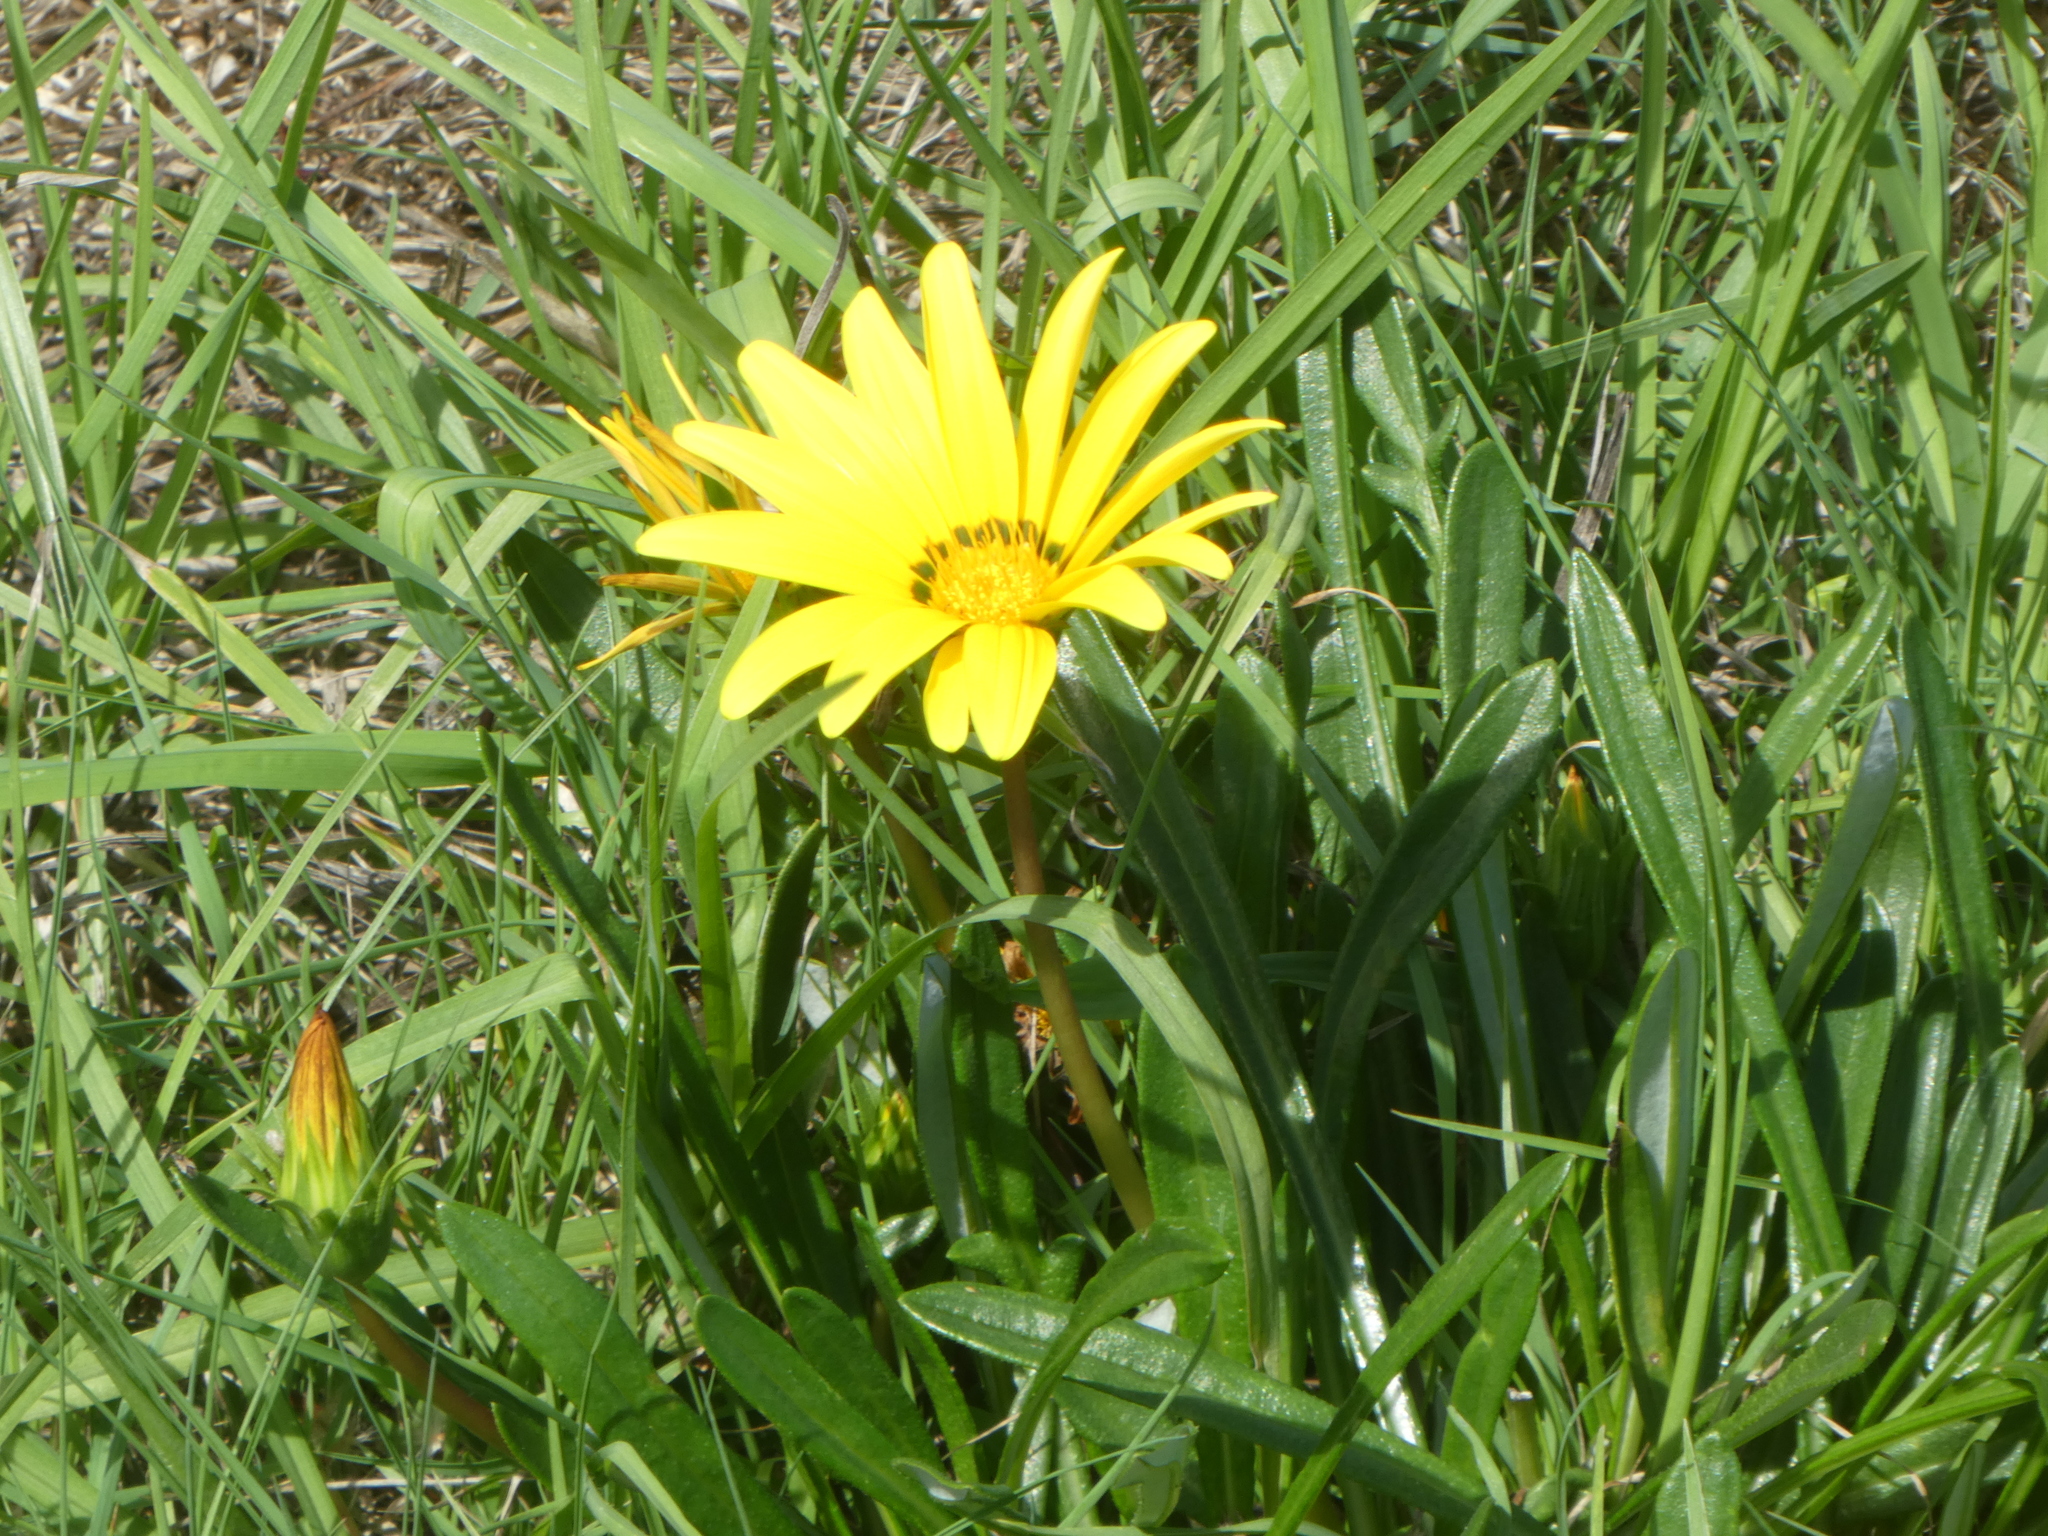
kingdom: Plantae
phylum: Tracheophyta
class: Magnoliopsida
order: Asterales
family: Asteraceae
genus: Gazania
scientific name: Gazania rigens
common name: Treasureflower
